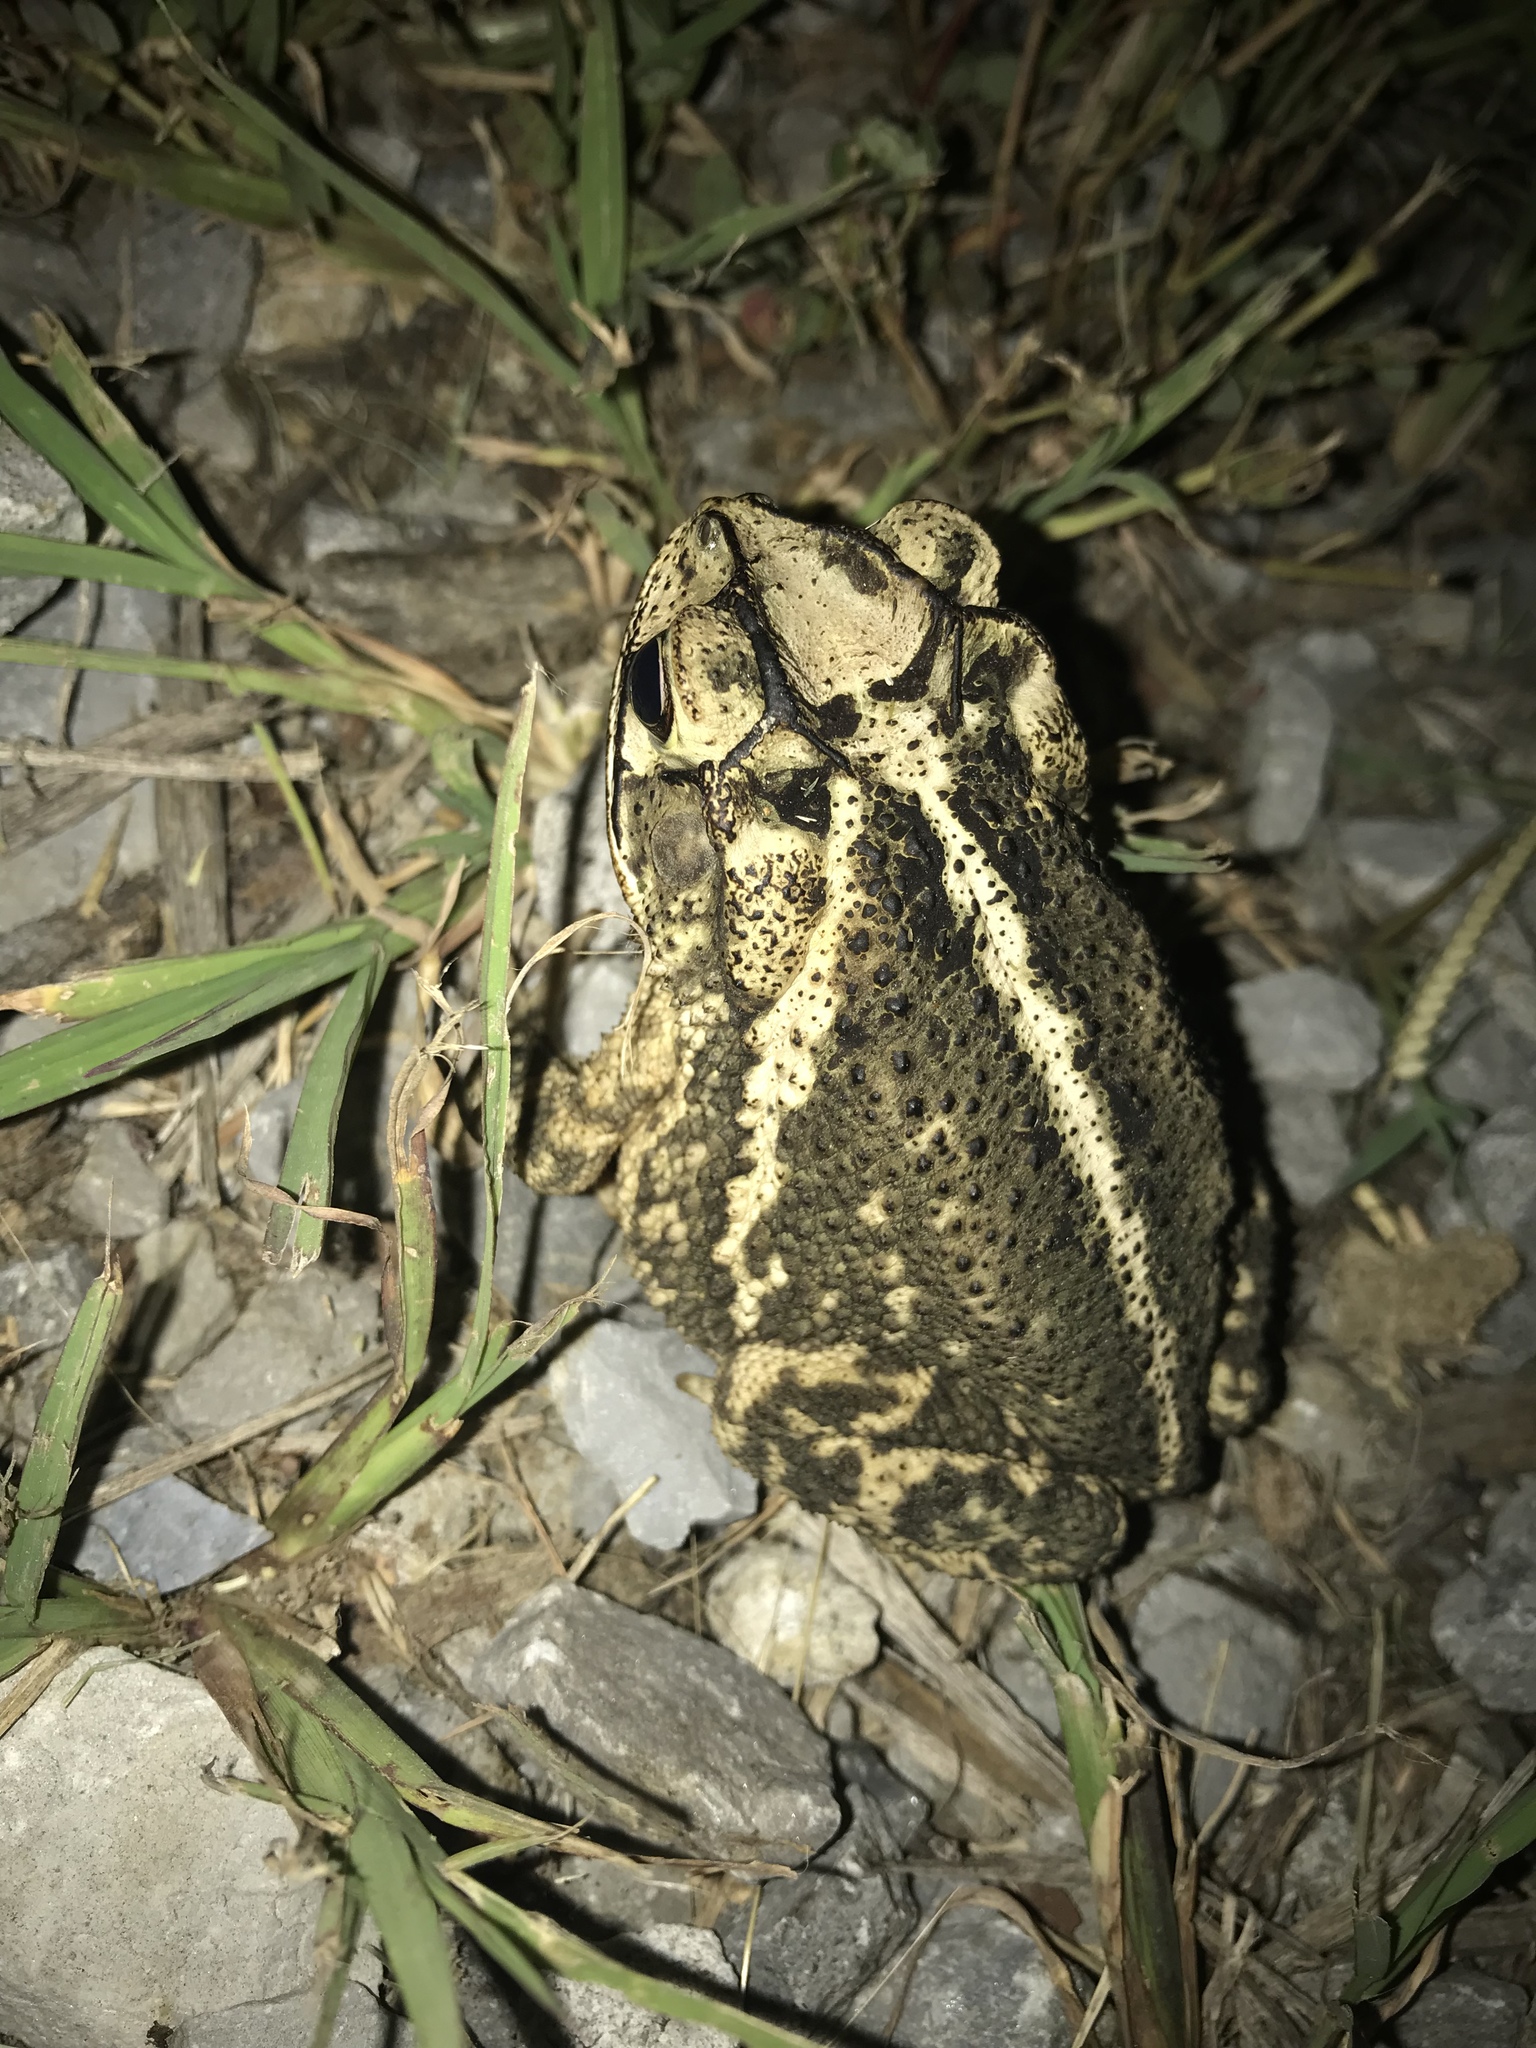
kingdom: Animalia
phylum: Chordata
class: Amphibia
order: Anura
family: Bufonidae
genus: Incilius
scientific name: Incilius nebulifer
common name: Gulf coast toad
